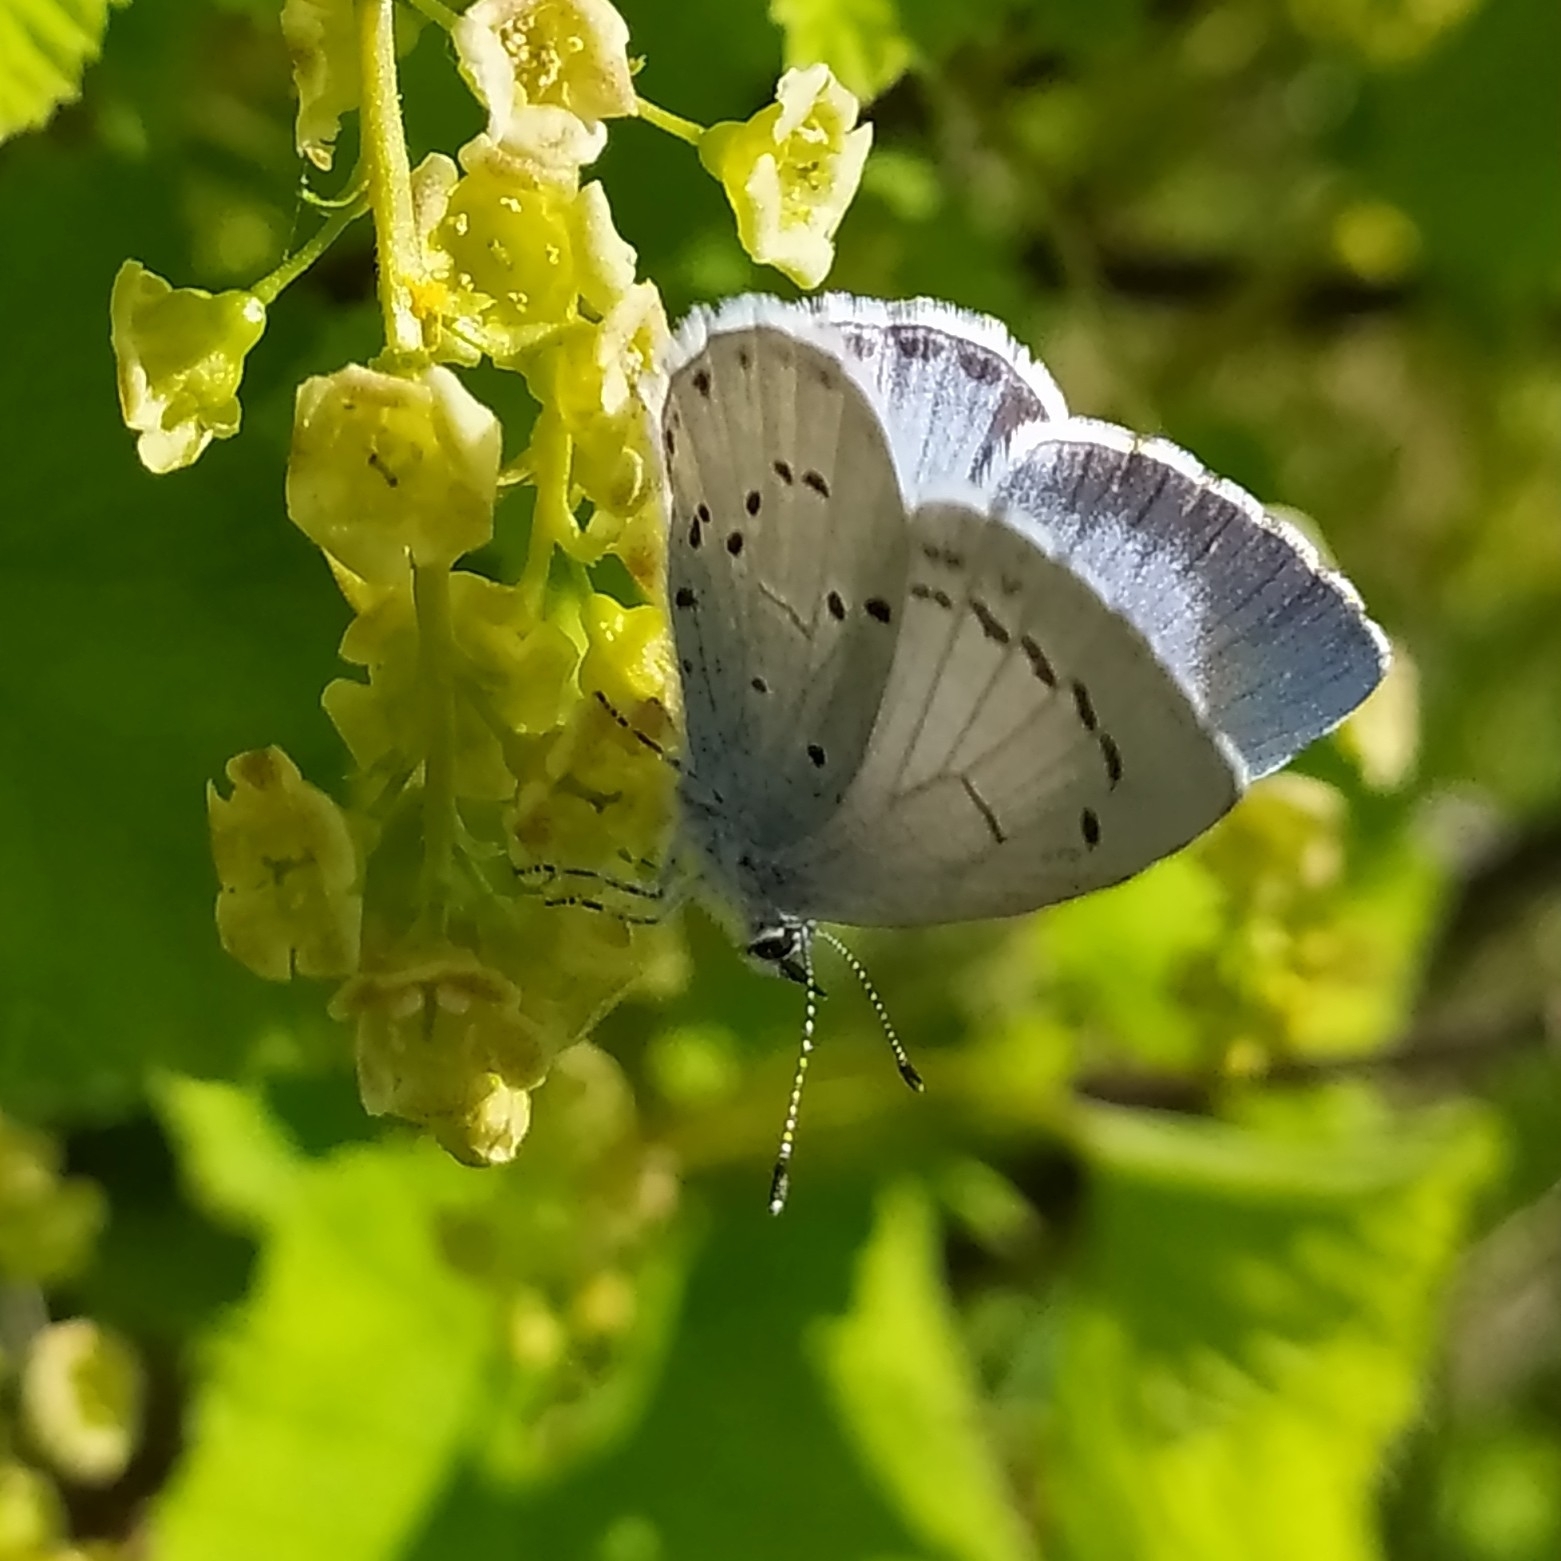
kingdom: Animalia
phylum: Arthropoda
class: Insecta
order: Lepidoptera
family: Lycaenidae
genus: Celastrina
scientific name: Celastrina argiolus
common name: Holly blue
